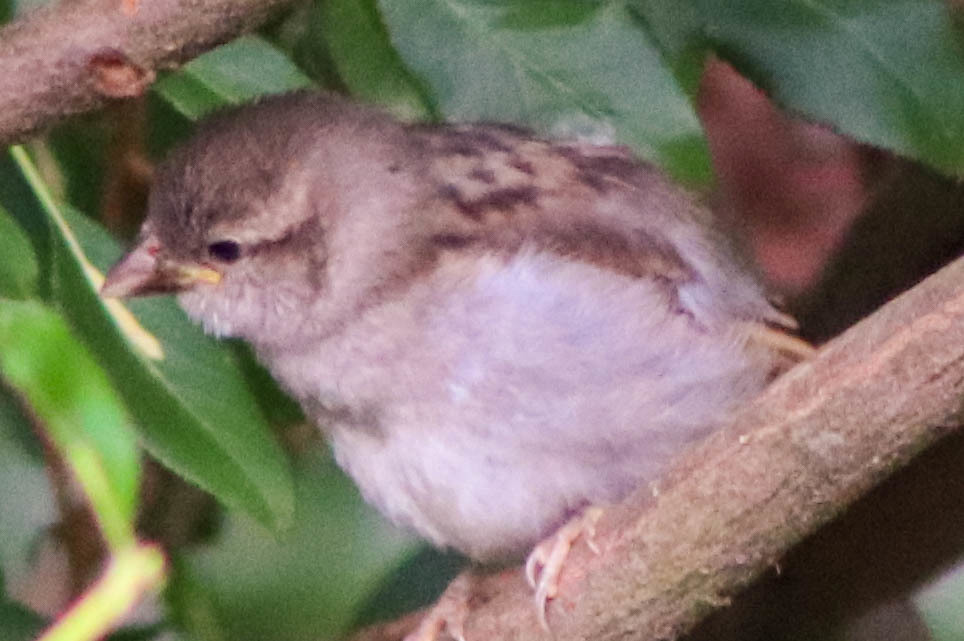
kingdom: Animalia
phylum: Chordata
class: Aves
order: Passeriformes
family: Passeridae
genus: Passer
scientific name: Passer domesticus
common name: House sparrow
